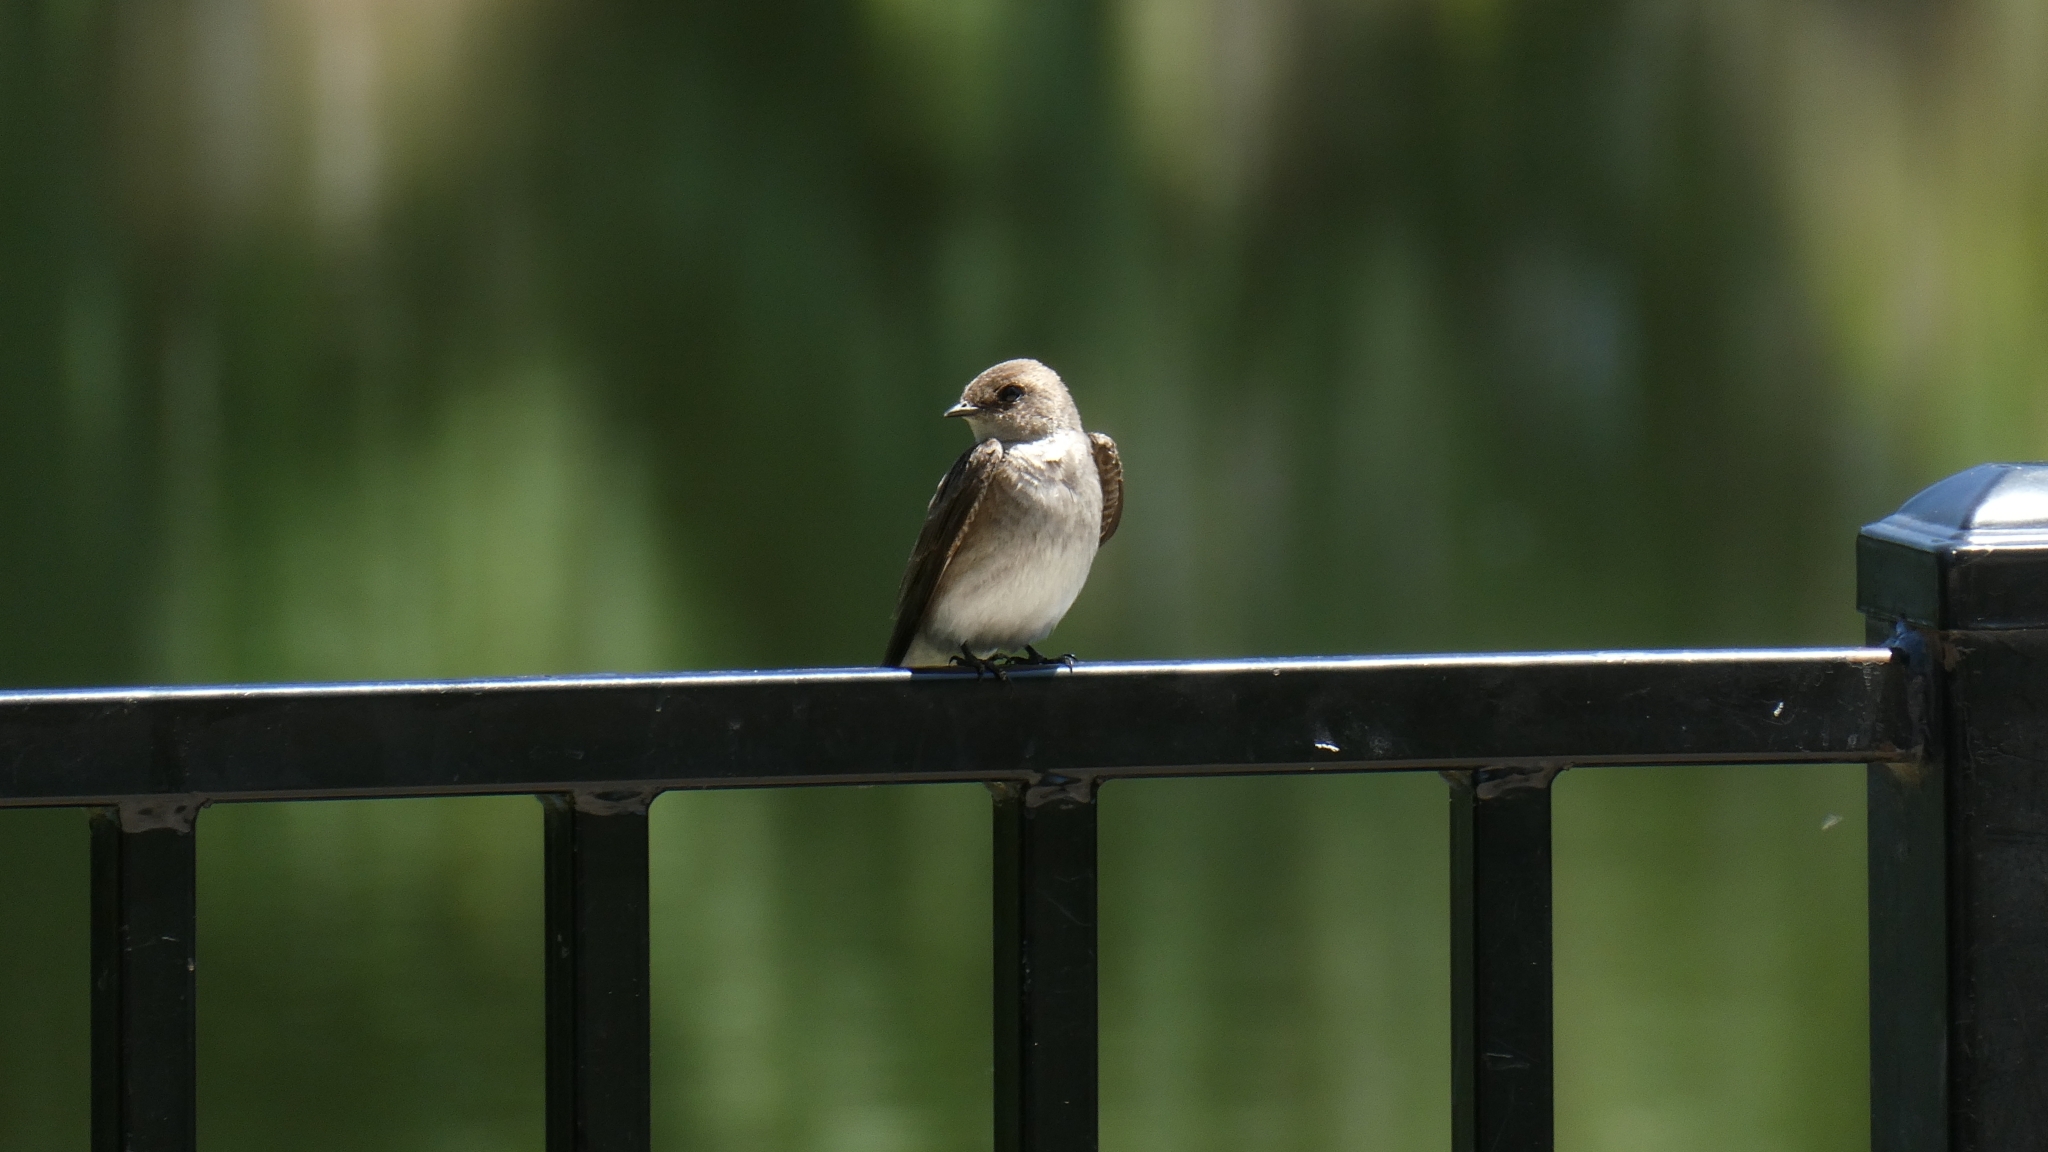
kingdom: Animalia
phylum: Chordata
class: Aves
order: Passeriformes
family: Hirundinidae
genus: Stelgidopteryx
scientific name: Stelgidopteryx serripennis
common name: Northern rough-winged swallow
